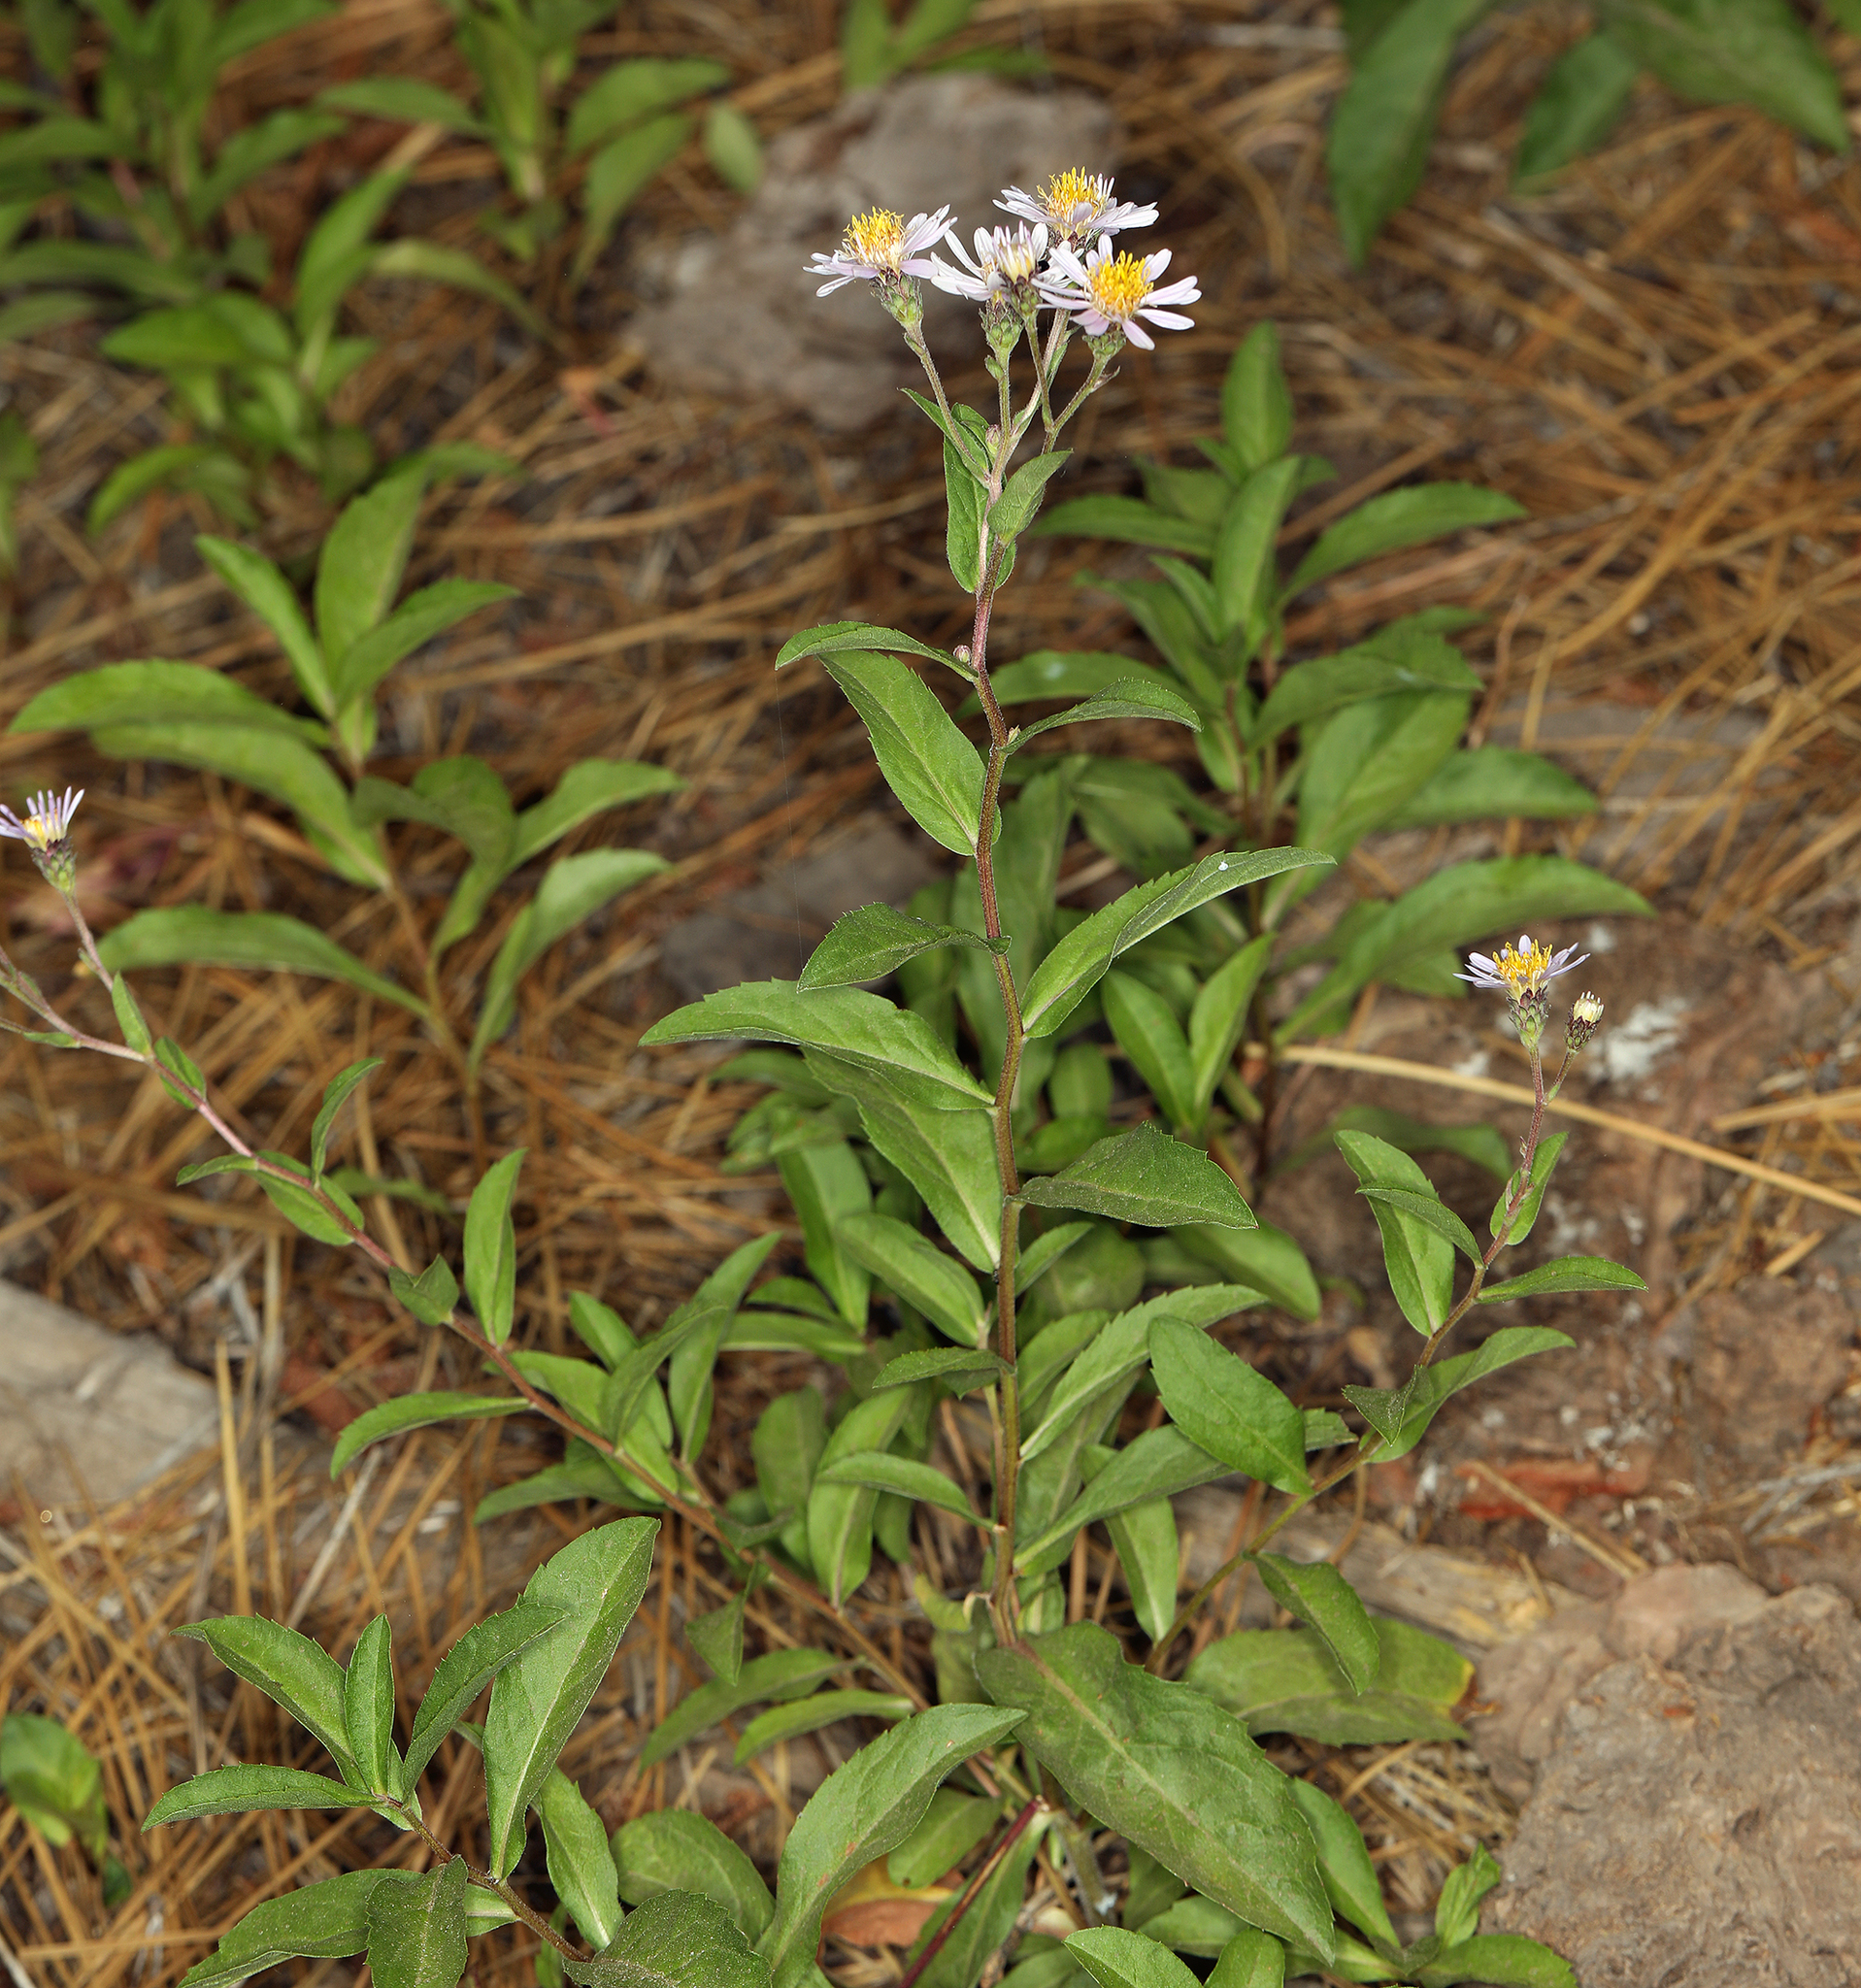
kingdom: Plantae
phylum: Tracheophyta
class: Magnoliopsida
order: Asterales
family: Asteraceae
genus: Eurybia
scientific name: Eurybia radulina
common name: Rough-leaved aster
